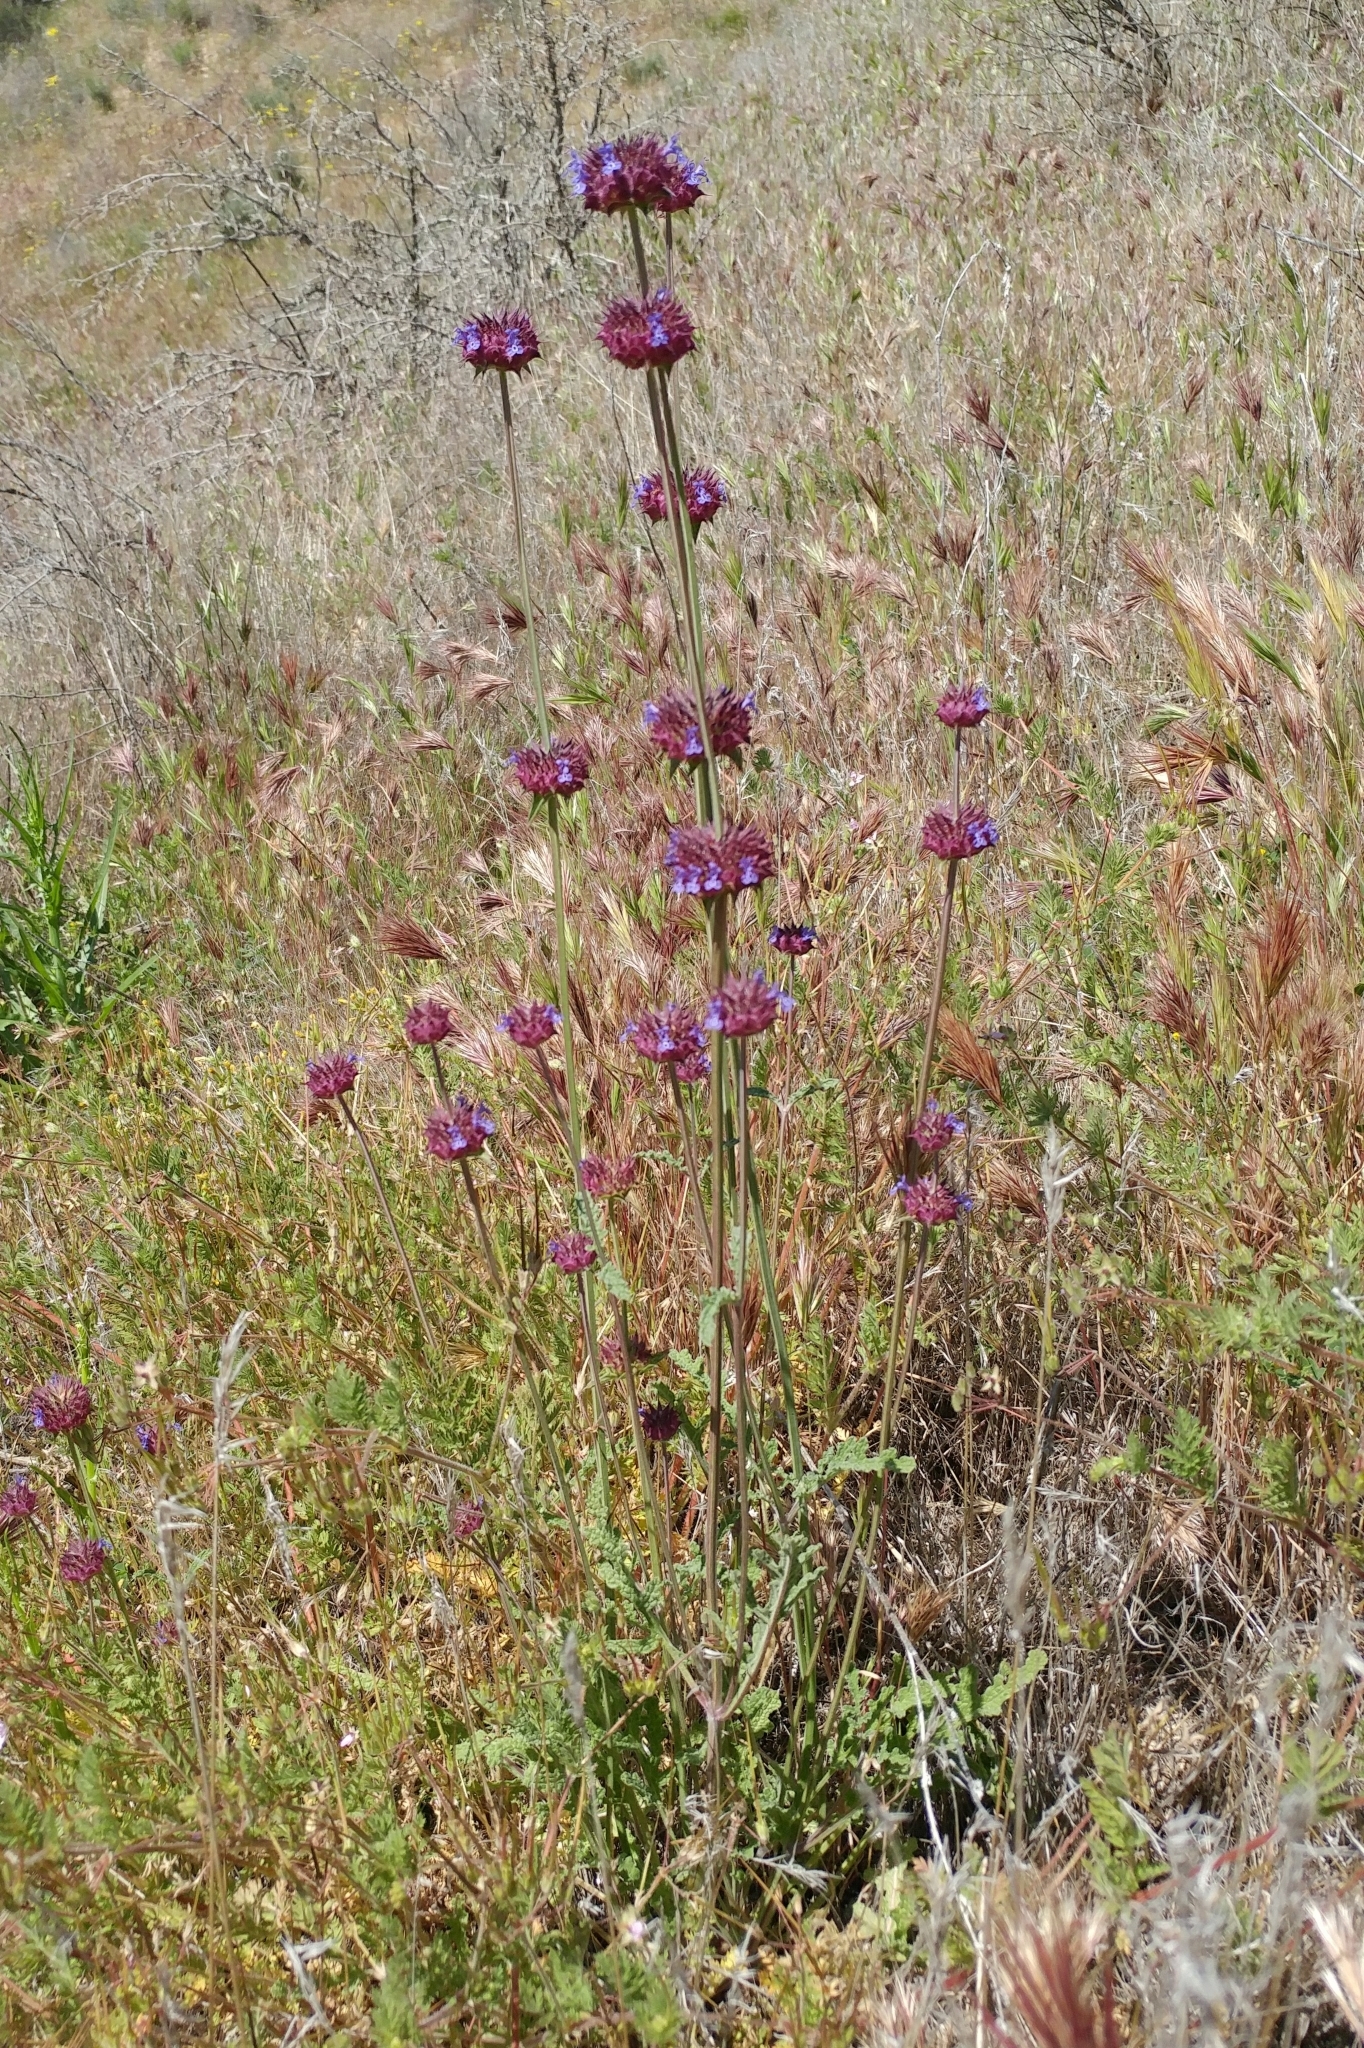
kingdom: Plantae
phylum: Tracheophyta
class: Magnoliopsida
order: Lamiales
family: Lamiaceae
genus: Salvia
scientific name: Salvia columbariae
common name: Chia
